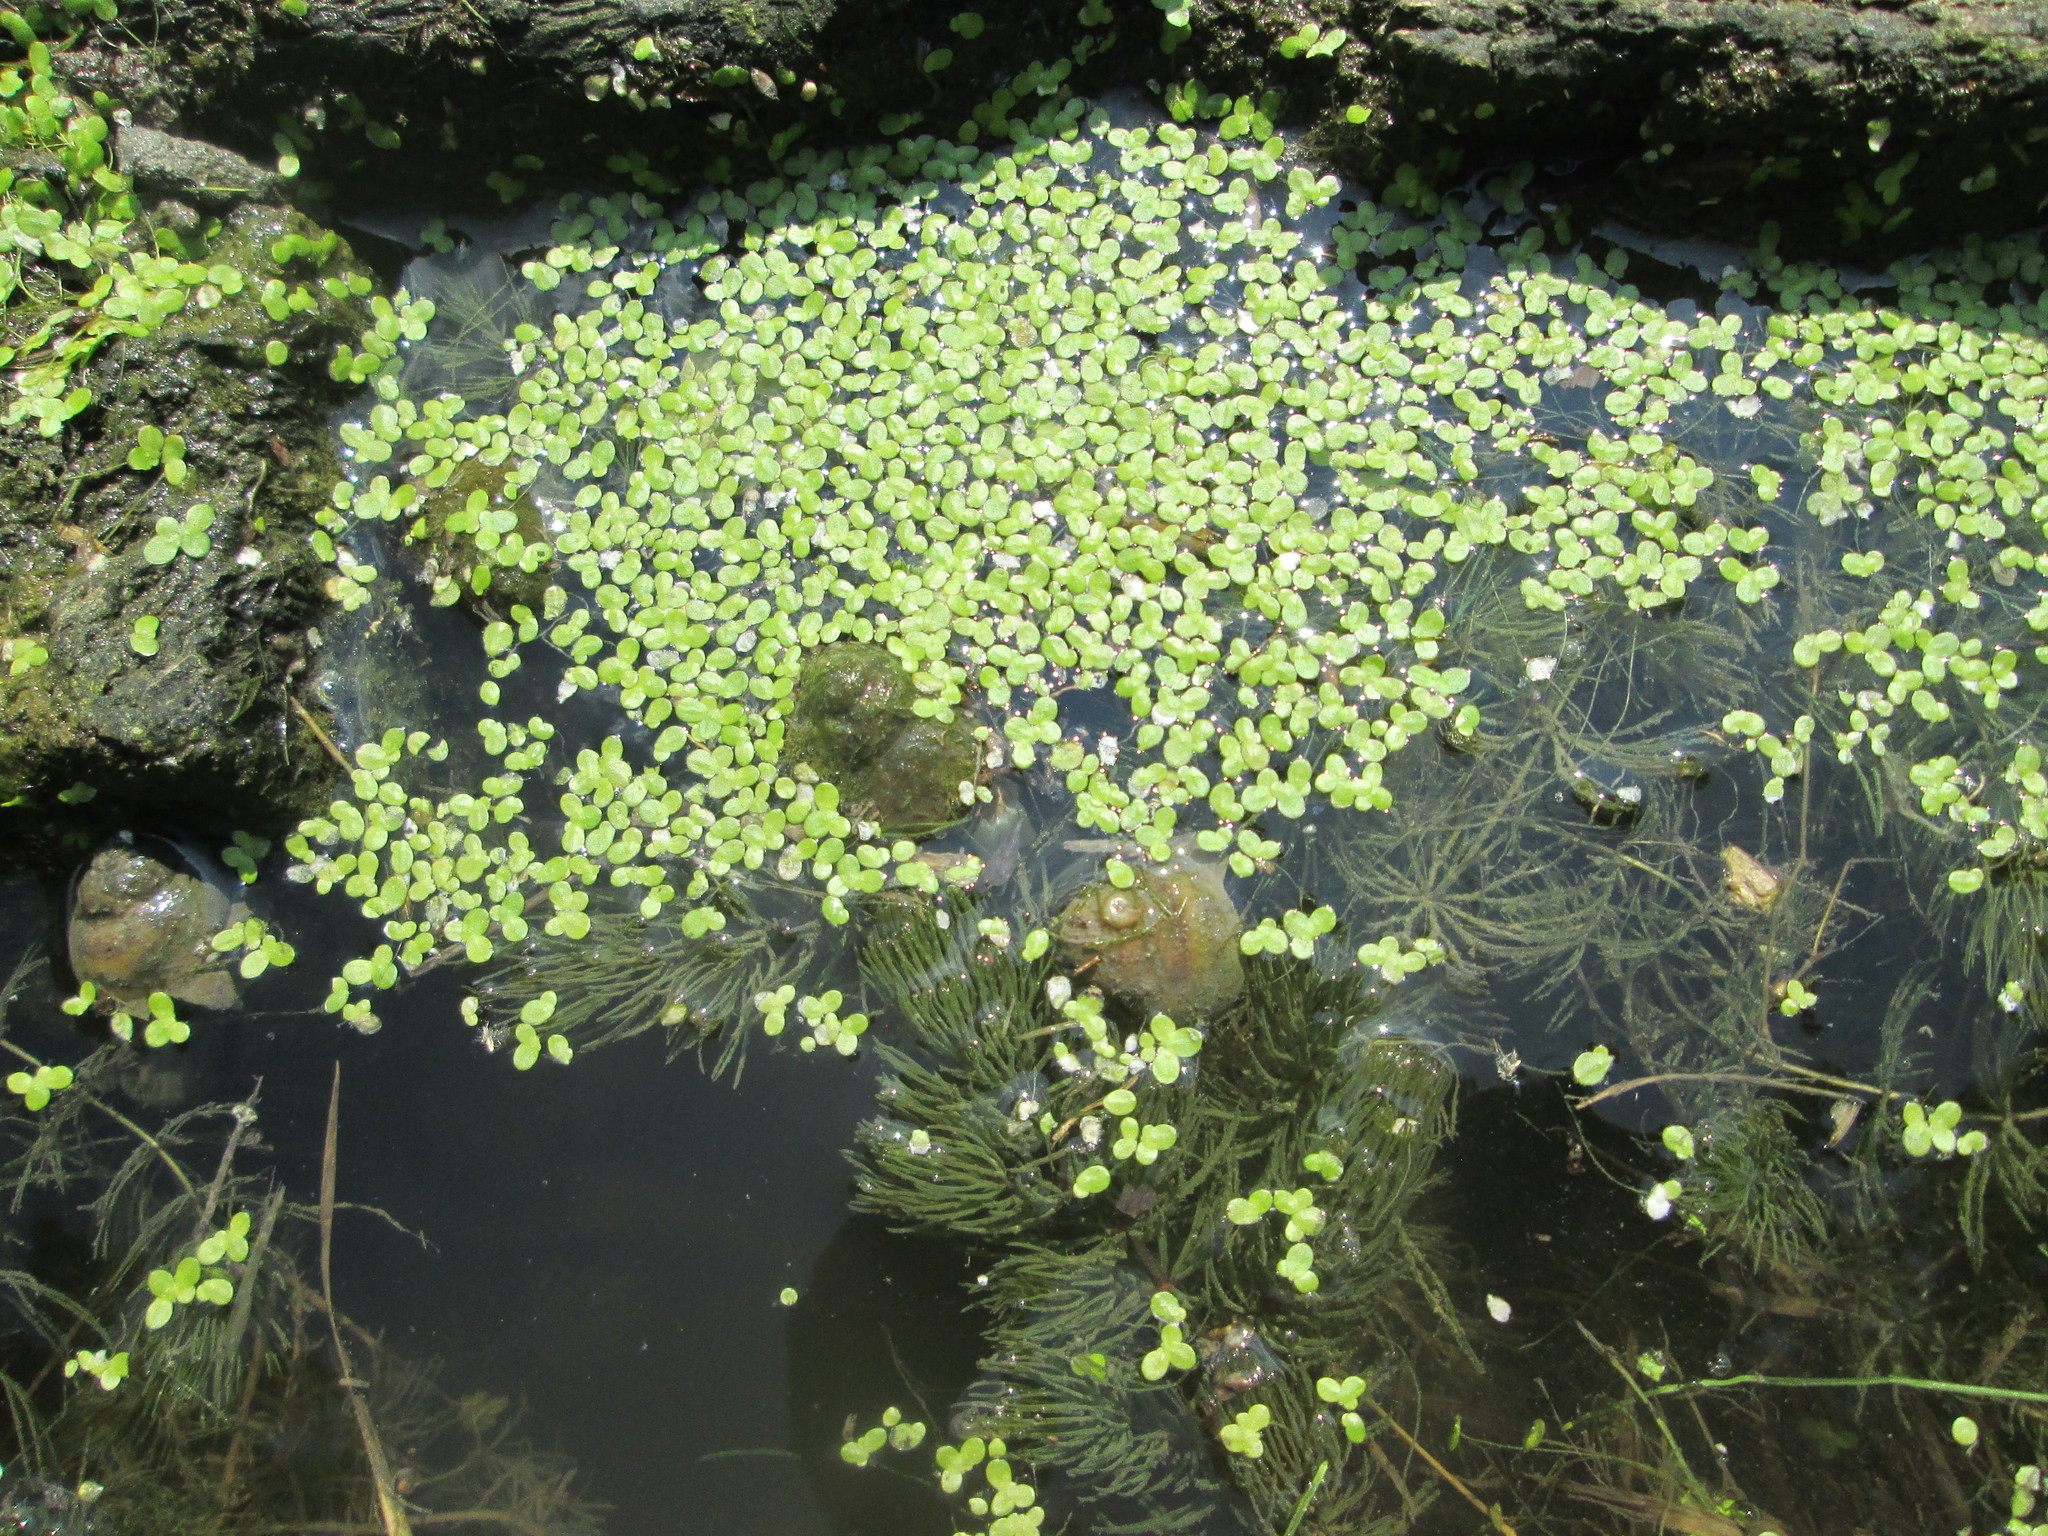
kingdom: Plantae
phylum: Tracheophyta
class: Liliopsida
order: Alismatales
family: Araceae
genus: Lemna
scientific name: Lemna minor
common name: Common duckweed
